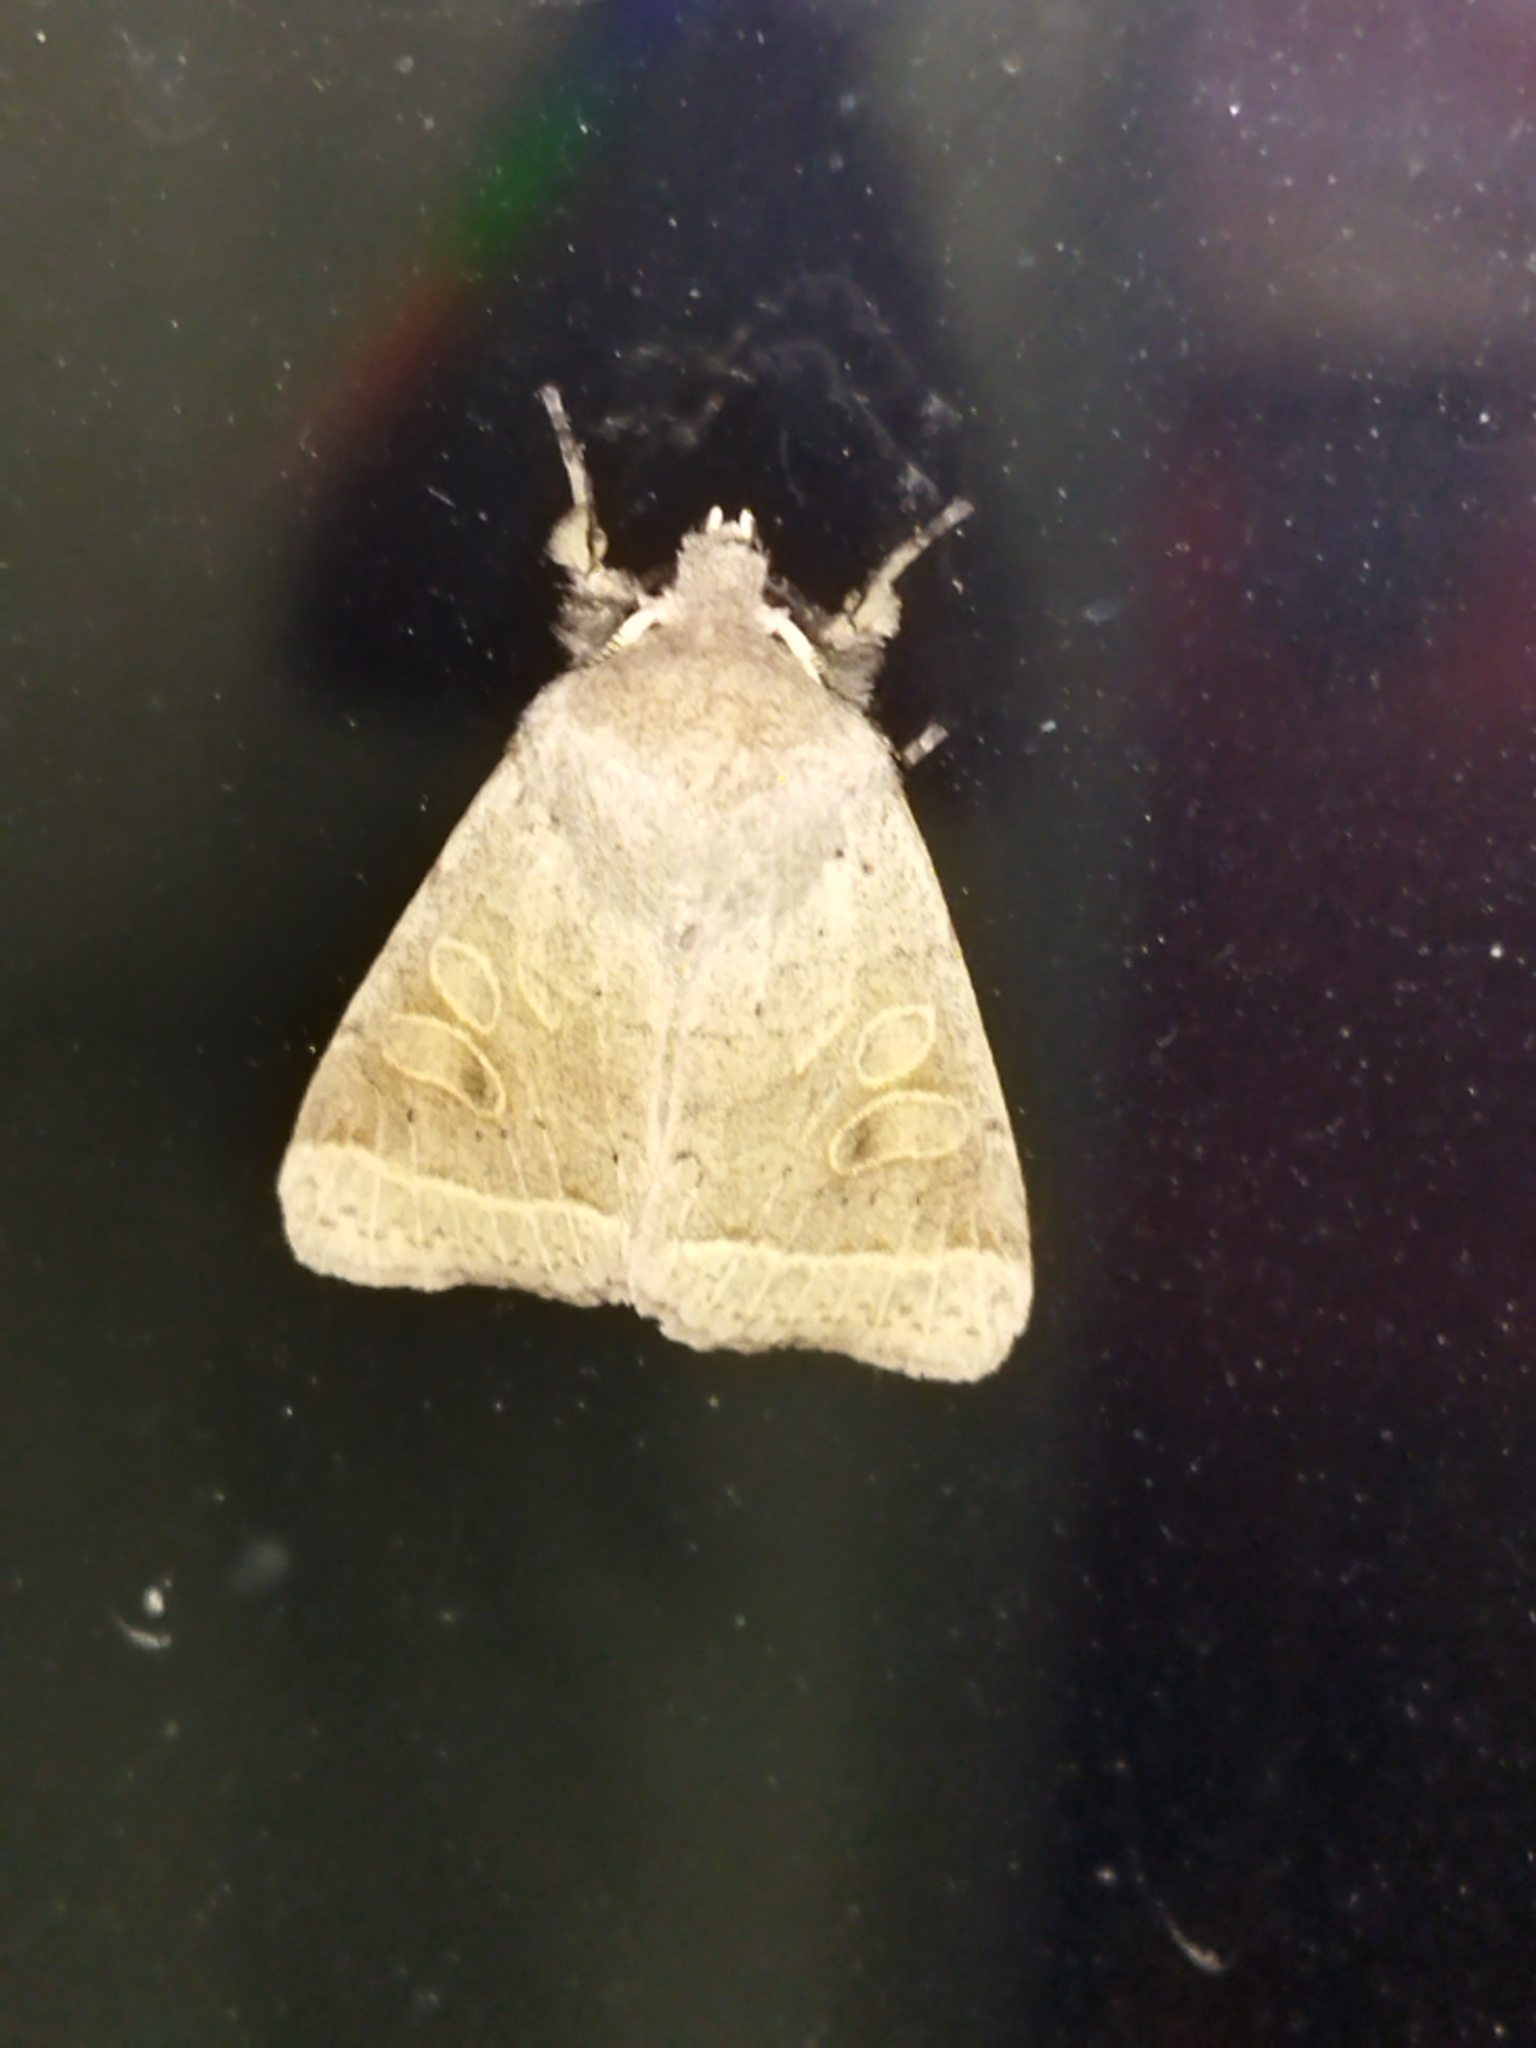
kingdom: Animalia
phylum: Arthropoda
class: Insecta
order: Lepidoptera
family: Noctuidae
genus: Orthosia
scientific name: Orthosia cerasi
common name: Common quaker
